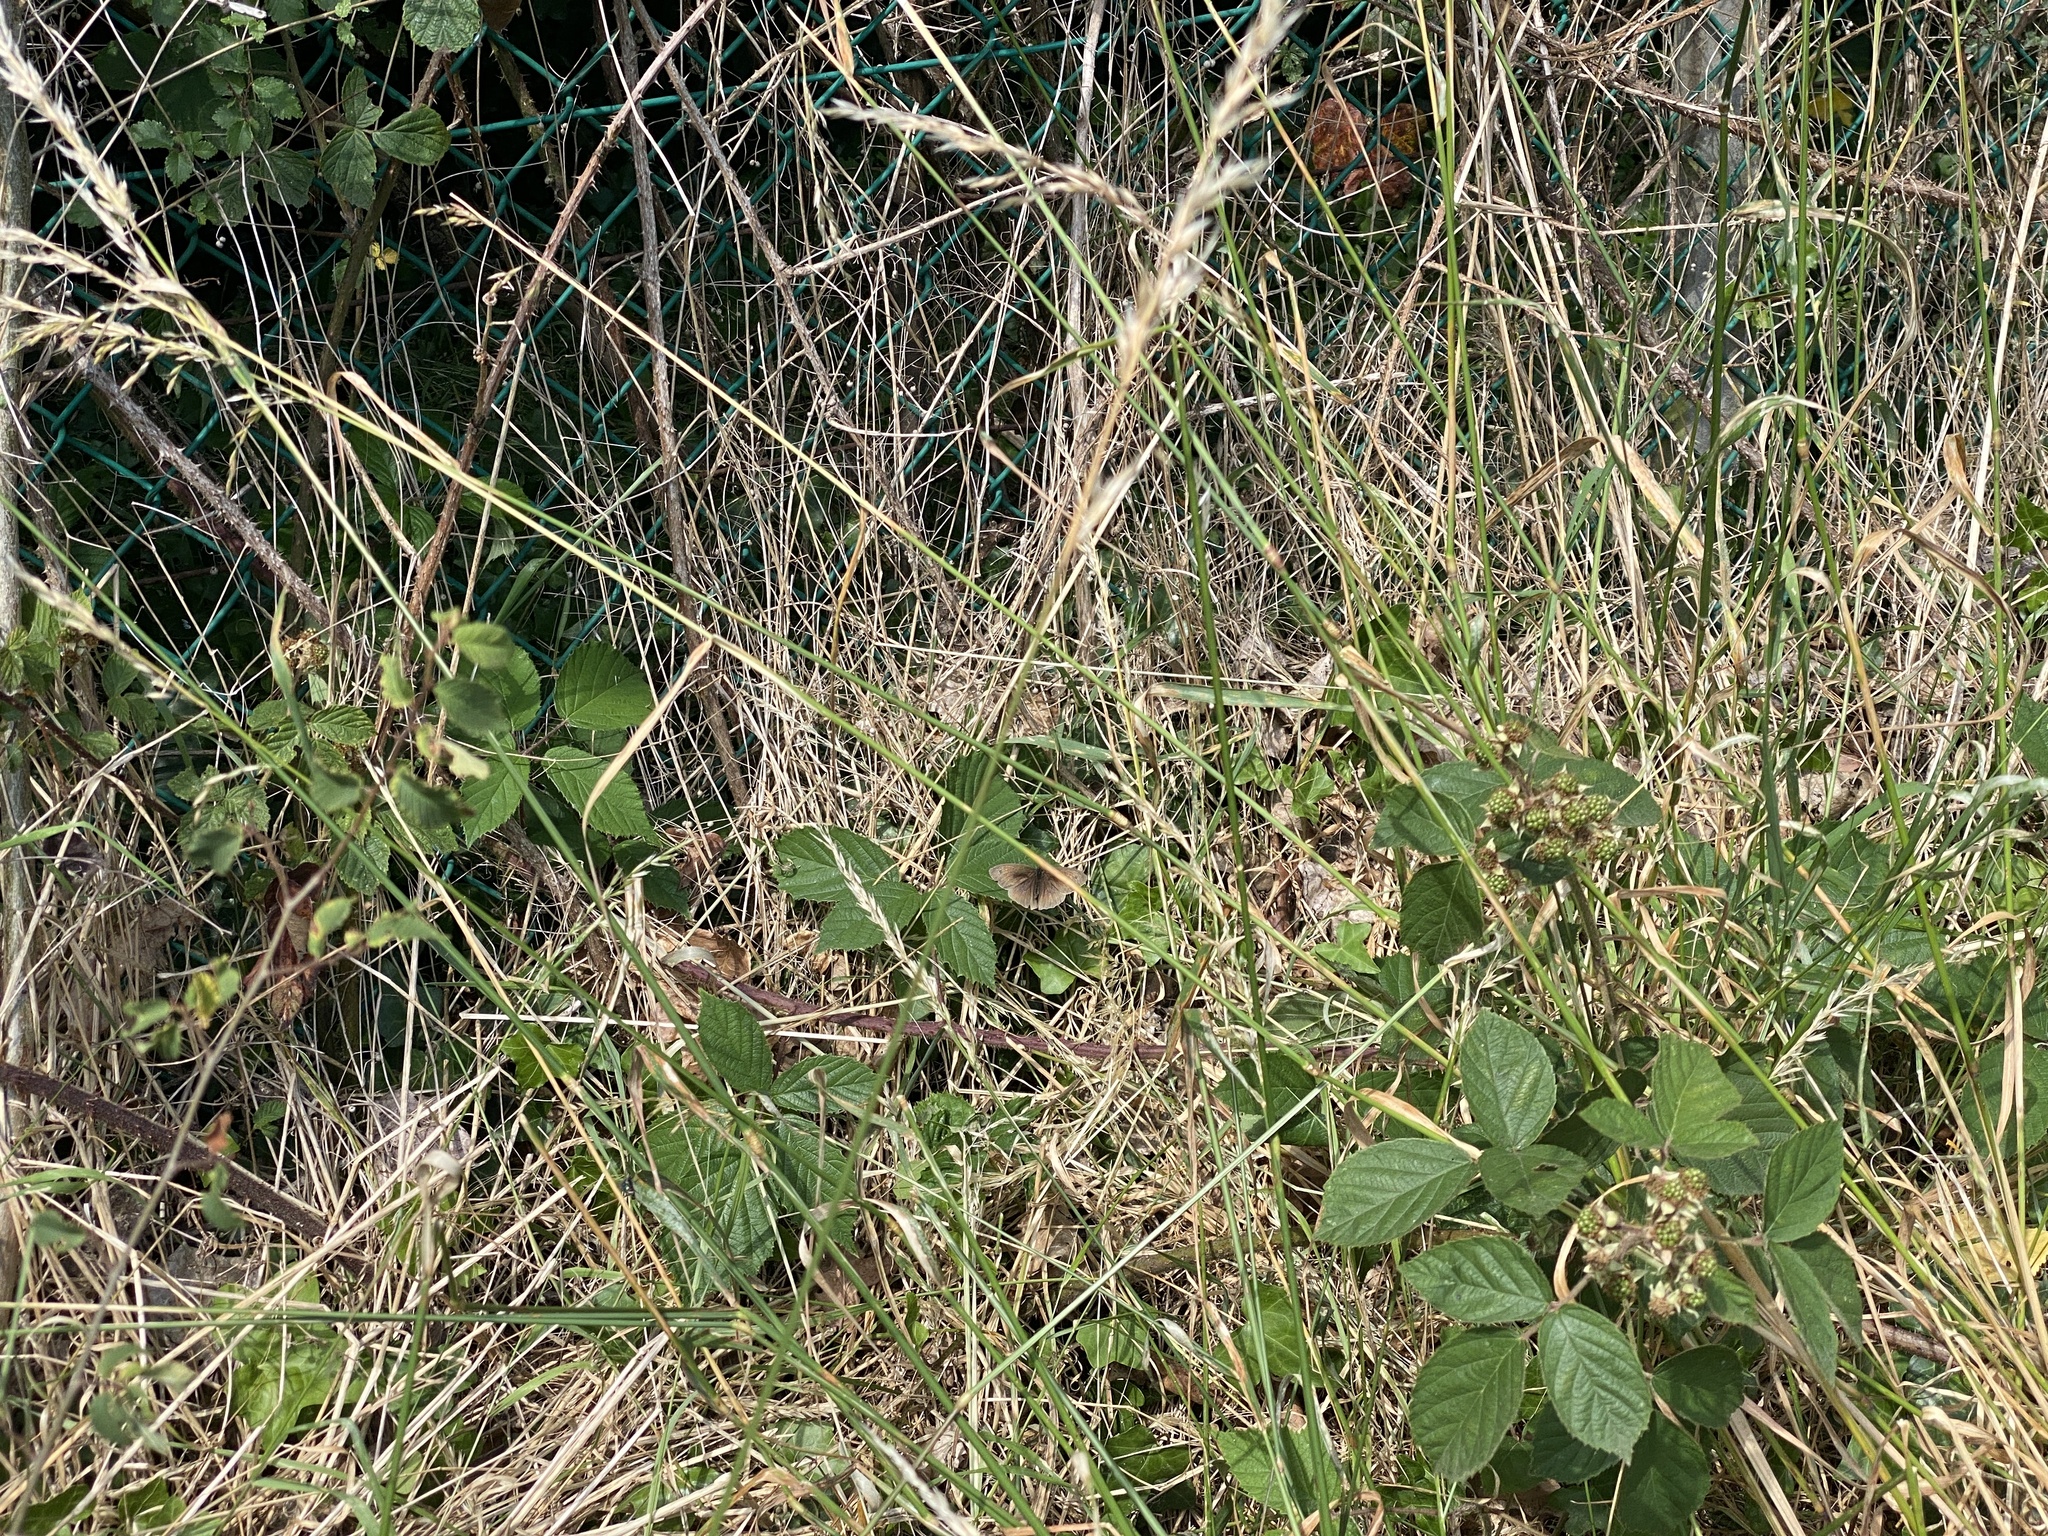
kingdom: Animalia
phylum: Arthropoda
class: Insecta
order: Lepidoptera
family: Nymphalidae
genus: Maniola
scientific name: Maniola jurtina
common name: Meadow brown
